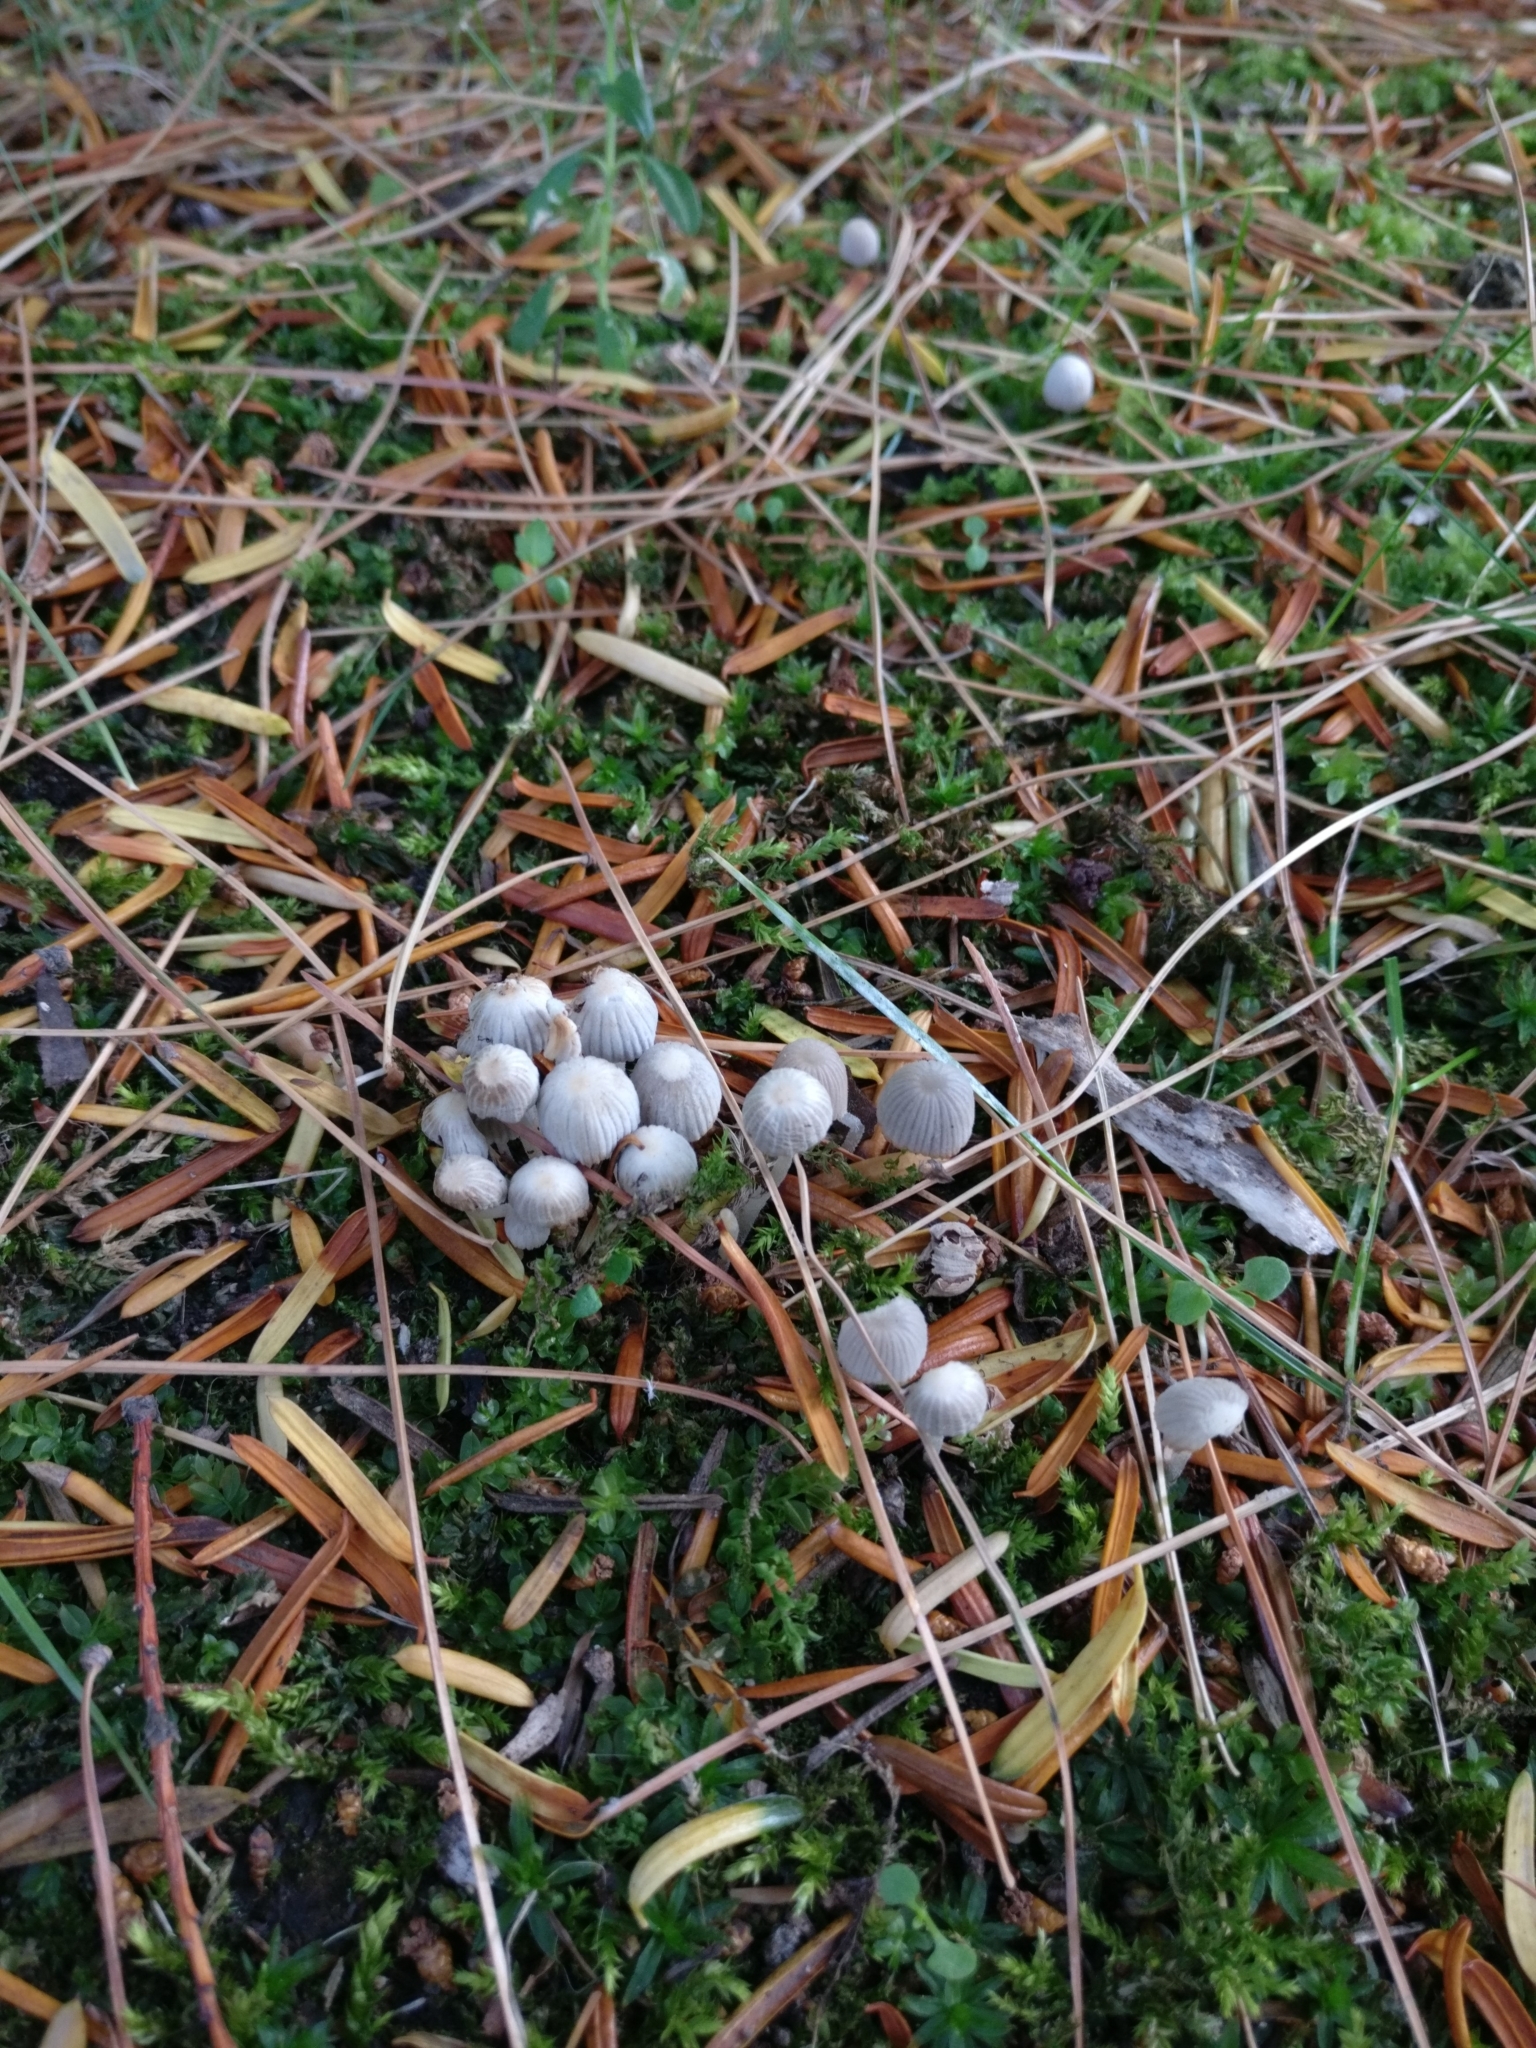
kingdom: Fungi
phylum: Basidiomycota
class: Agaricomycetes
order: Agaricales
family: Psathyrellaceae
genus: Coprinellus
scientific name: Coprinellus disseminatus
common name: Fairies' bonnets
